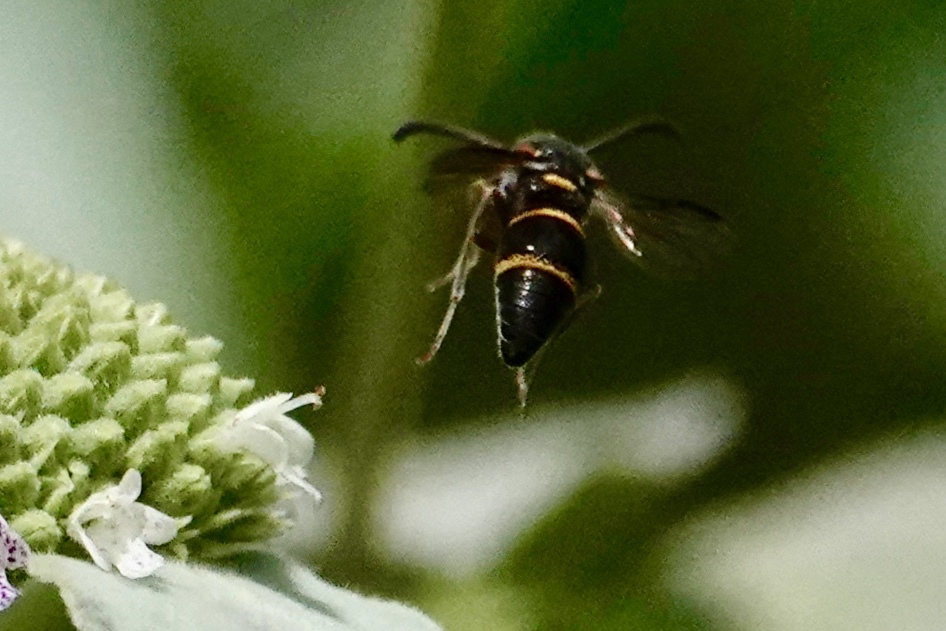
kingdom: Animalia
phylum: Arthropoda
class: Insecta
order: Hymenoptera
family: Eumenidae
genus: Parancistrocerus
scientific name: Parancistrocerus fulvipes
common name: Potter wasp
